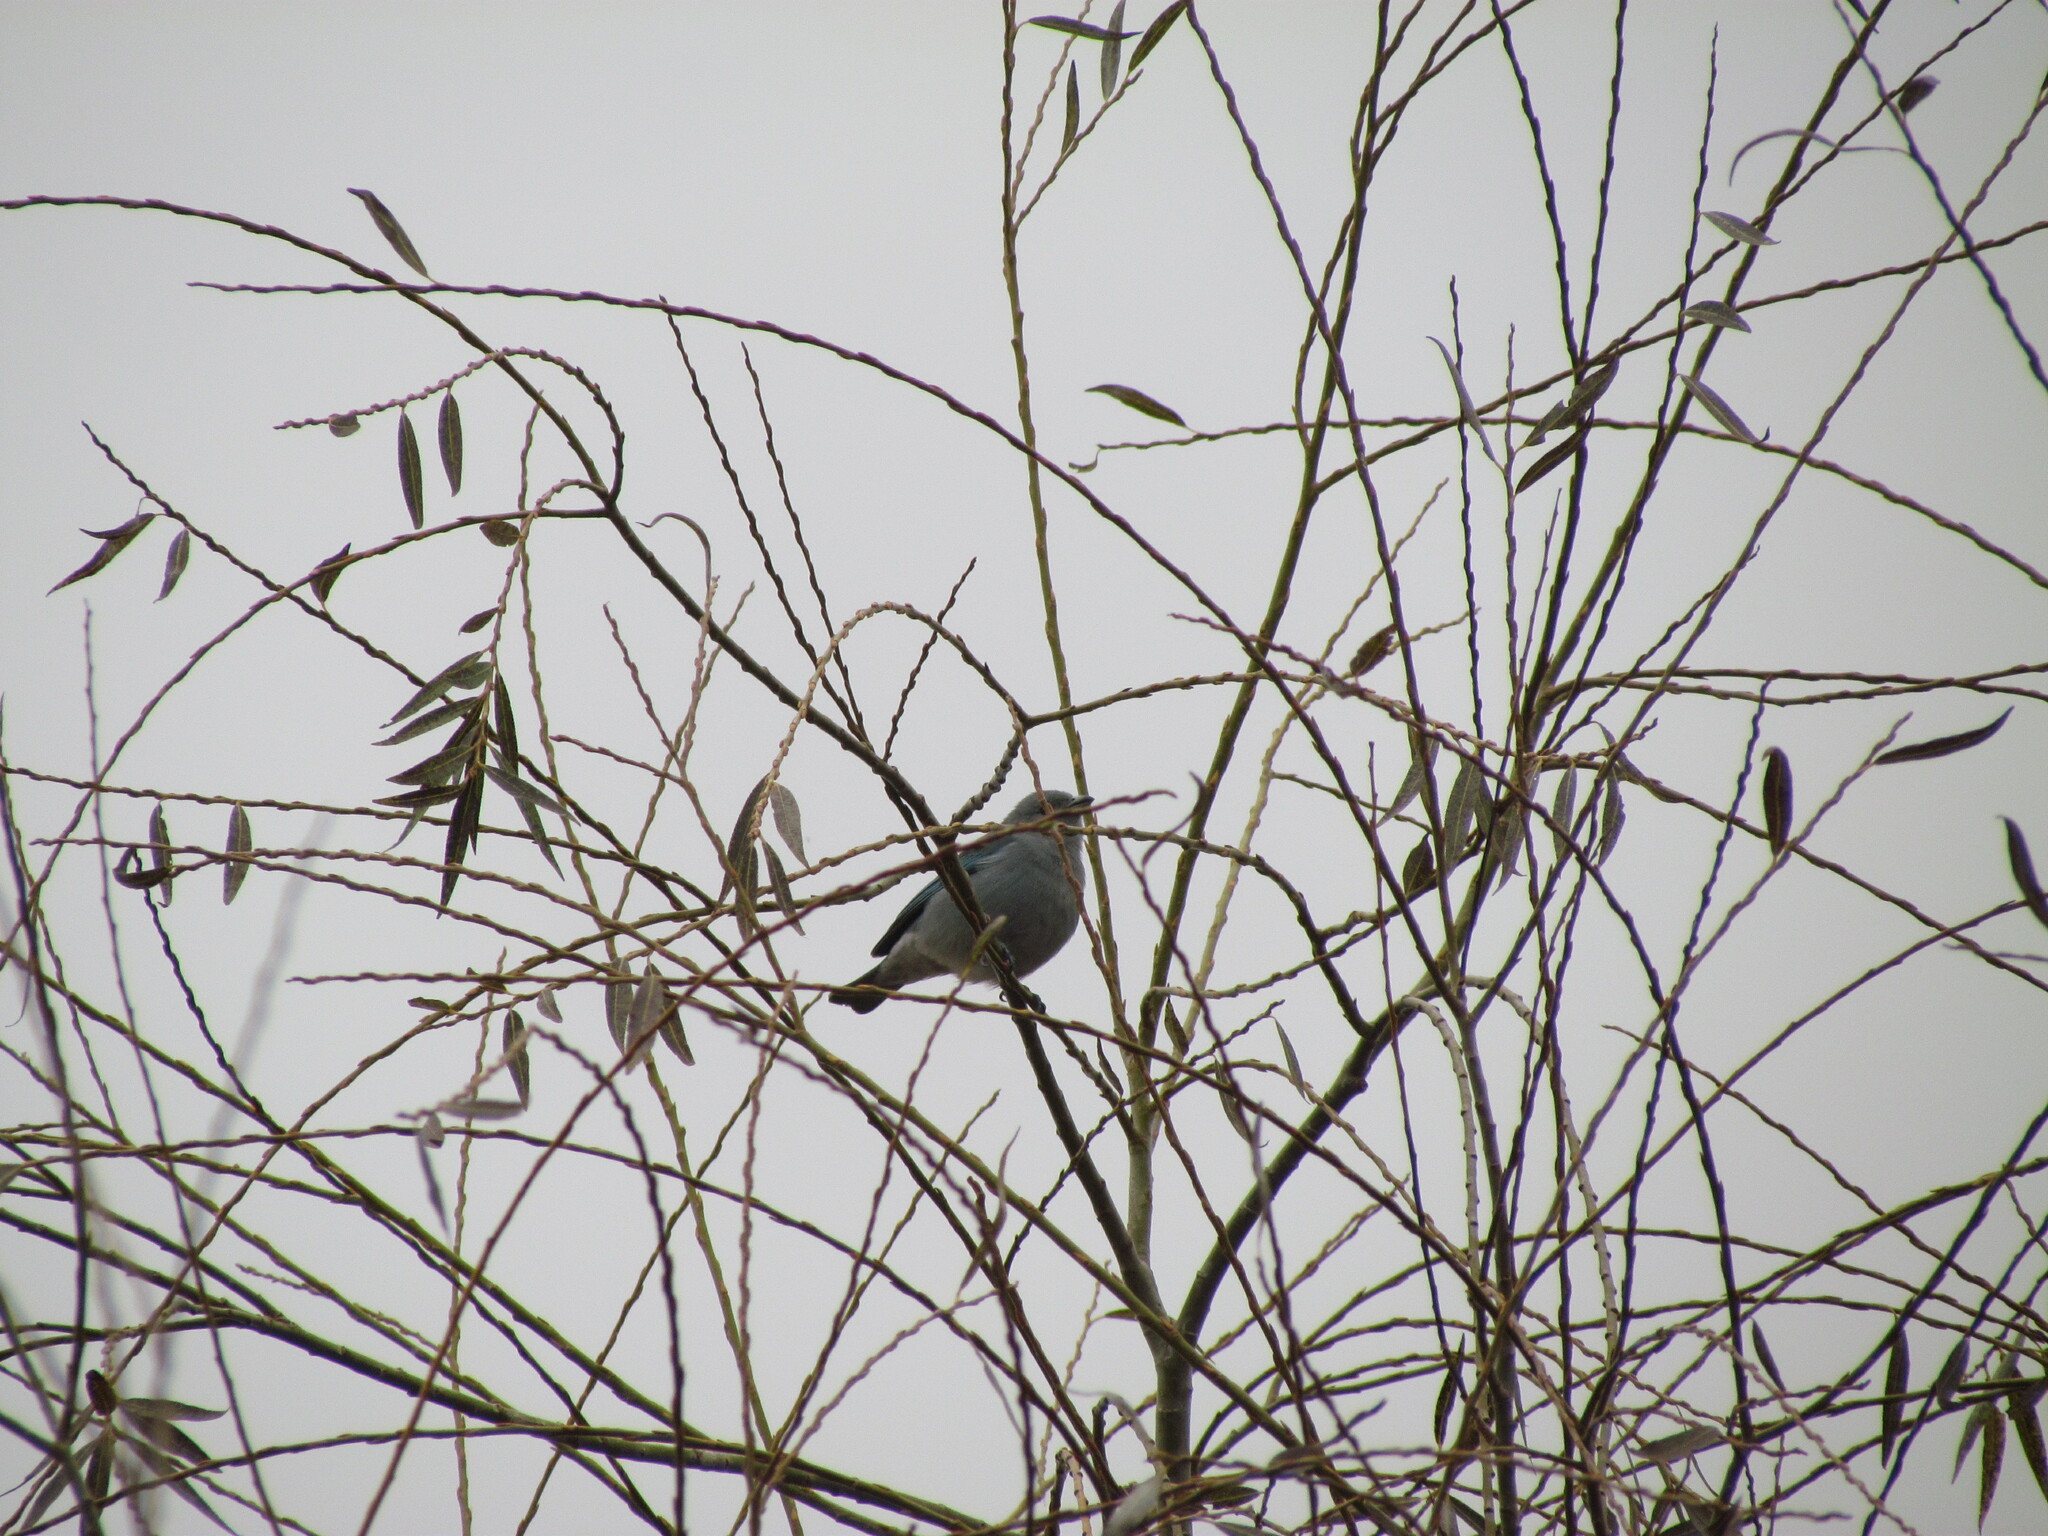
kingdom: Animalia
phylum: Chordata
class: Aves
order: Passeriformes
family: Thraupidae
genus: Thraupis
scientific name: Thraupis sayaca
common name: Sayaca tanager
